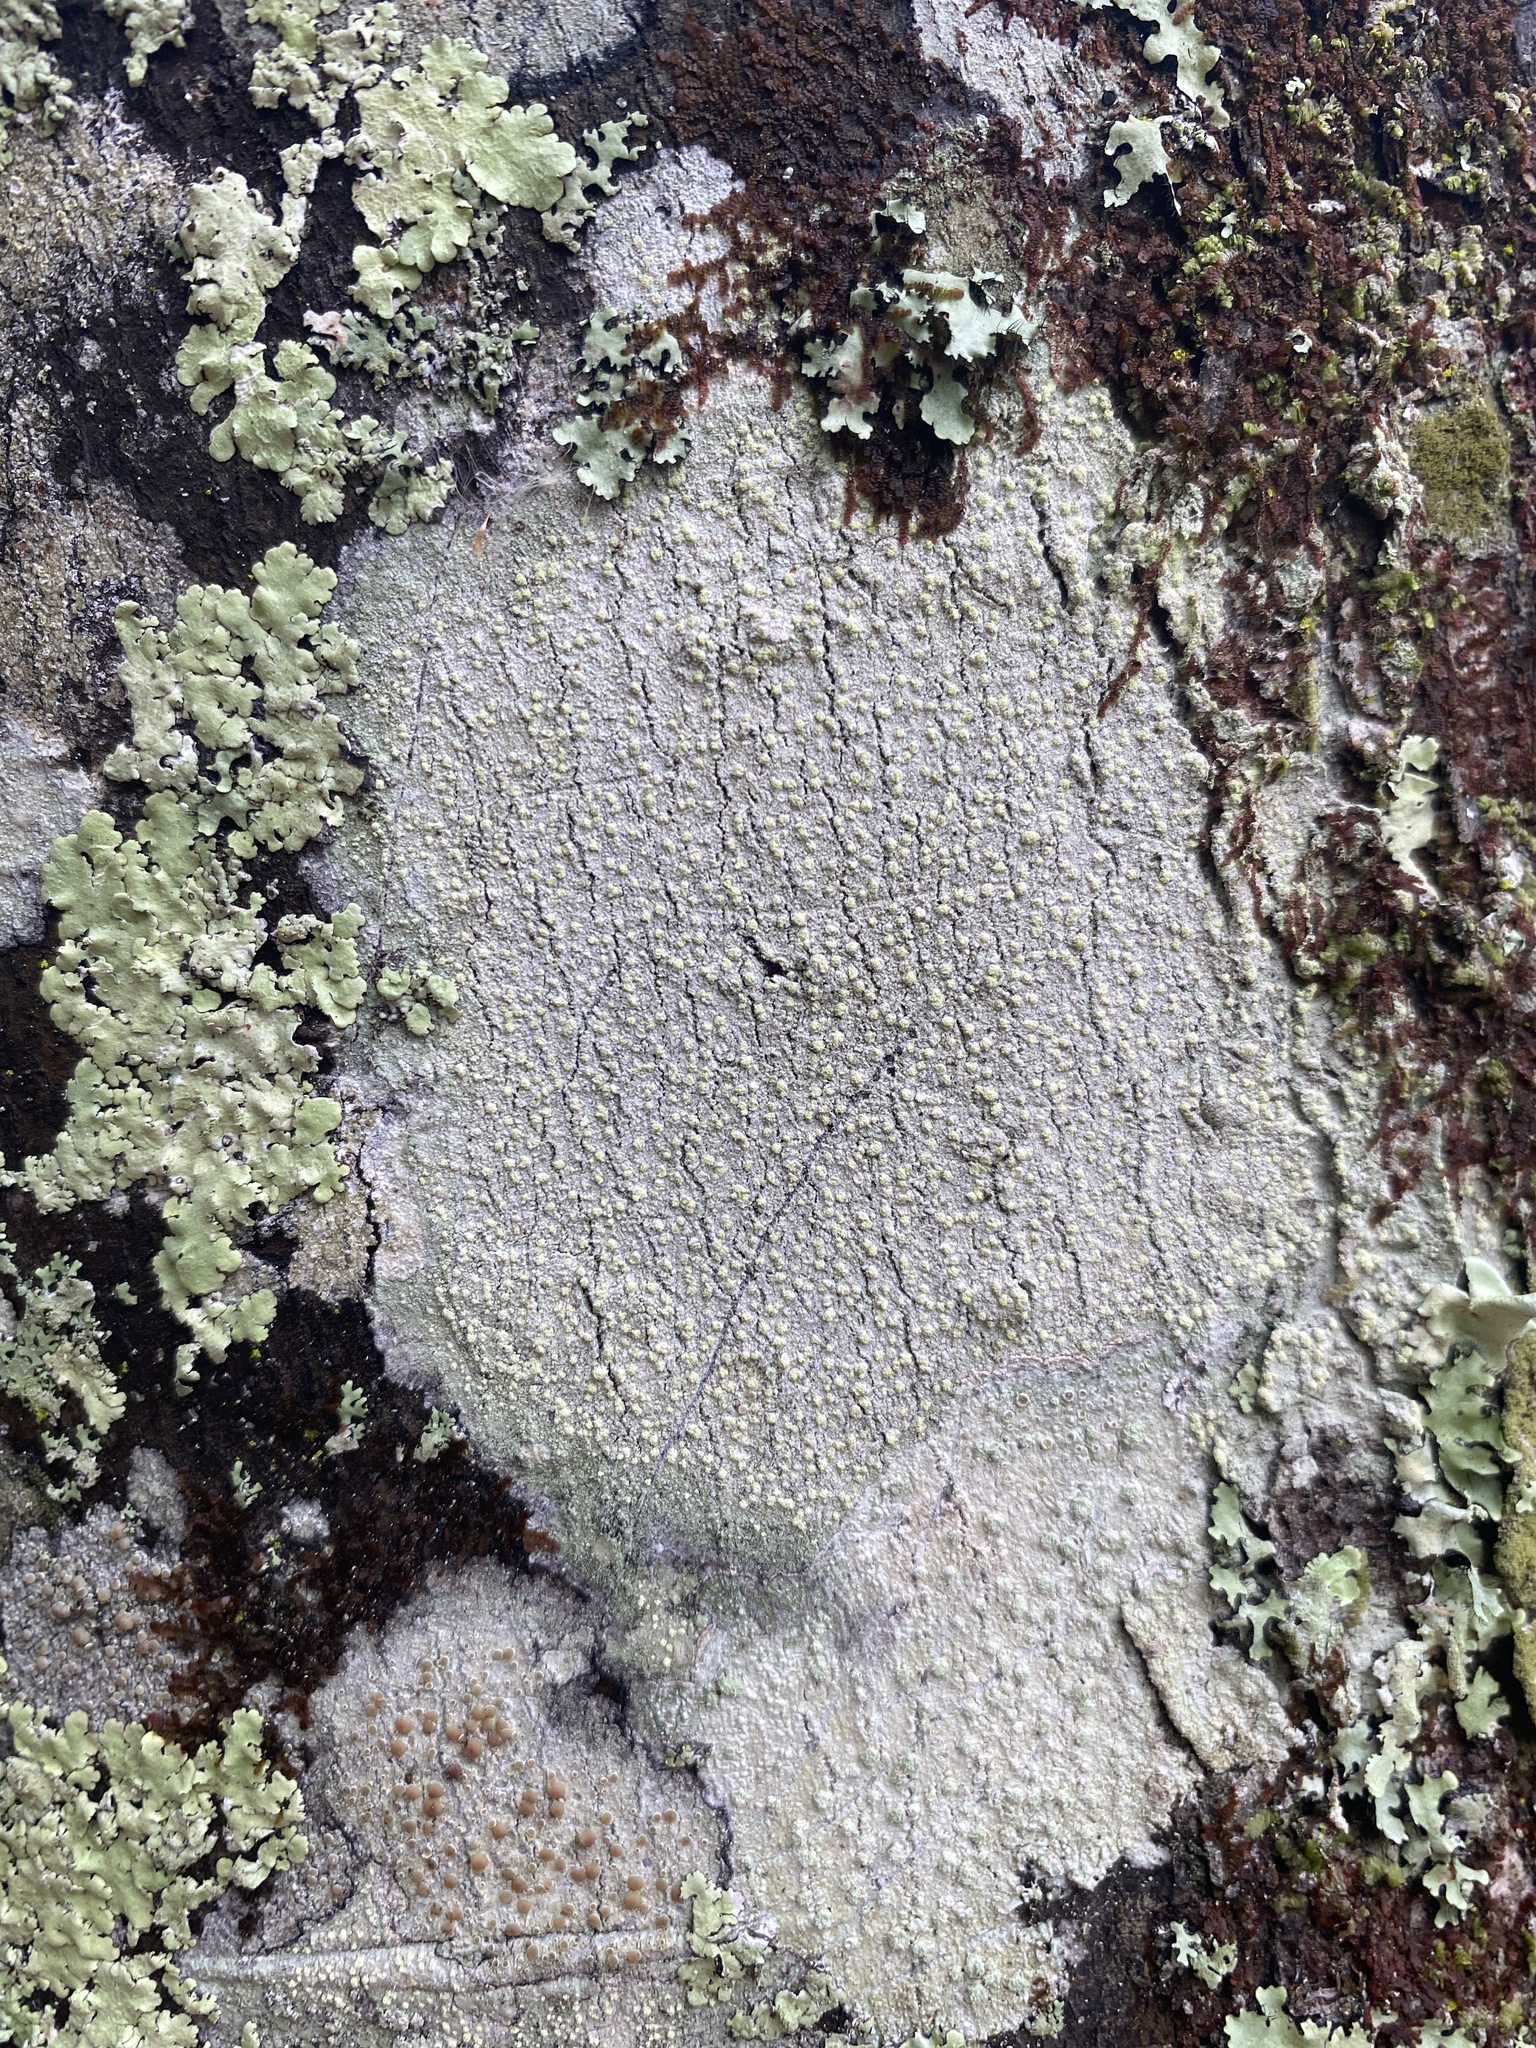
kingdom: Fungi
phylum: Ascomycota
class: Lecanoromycetes
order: Lecanorales
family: Lecanoraceae
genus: Lecanora
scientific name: Lecanora floridula
